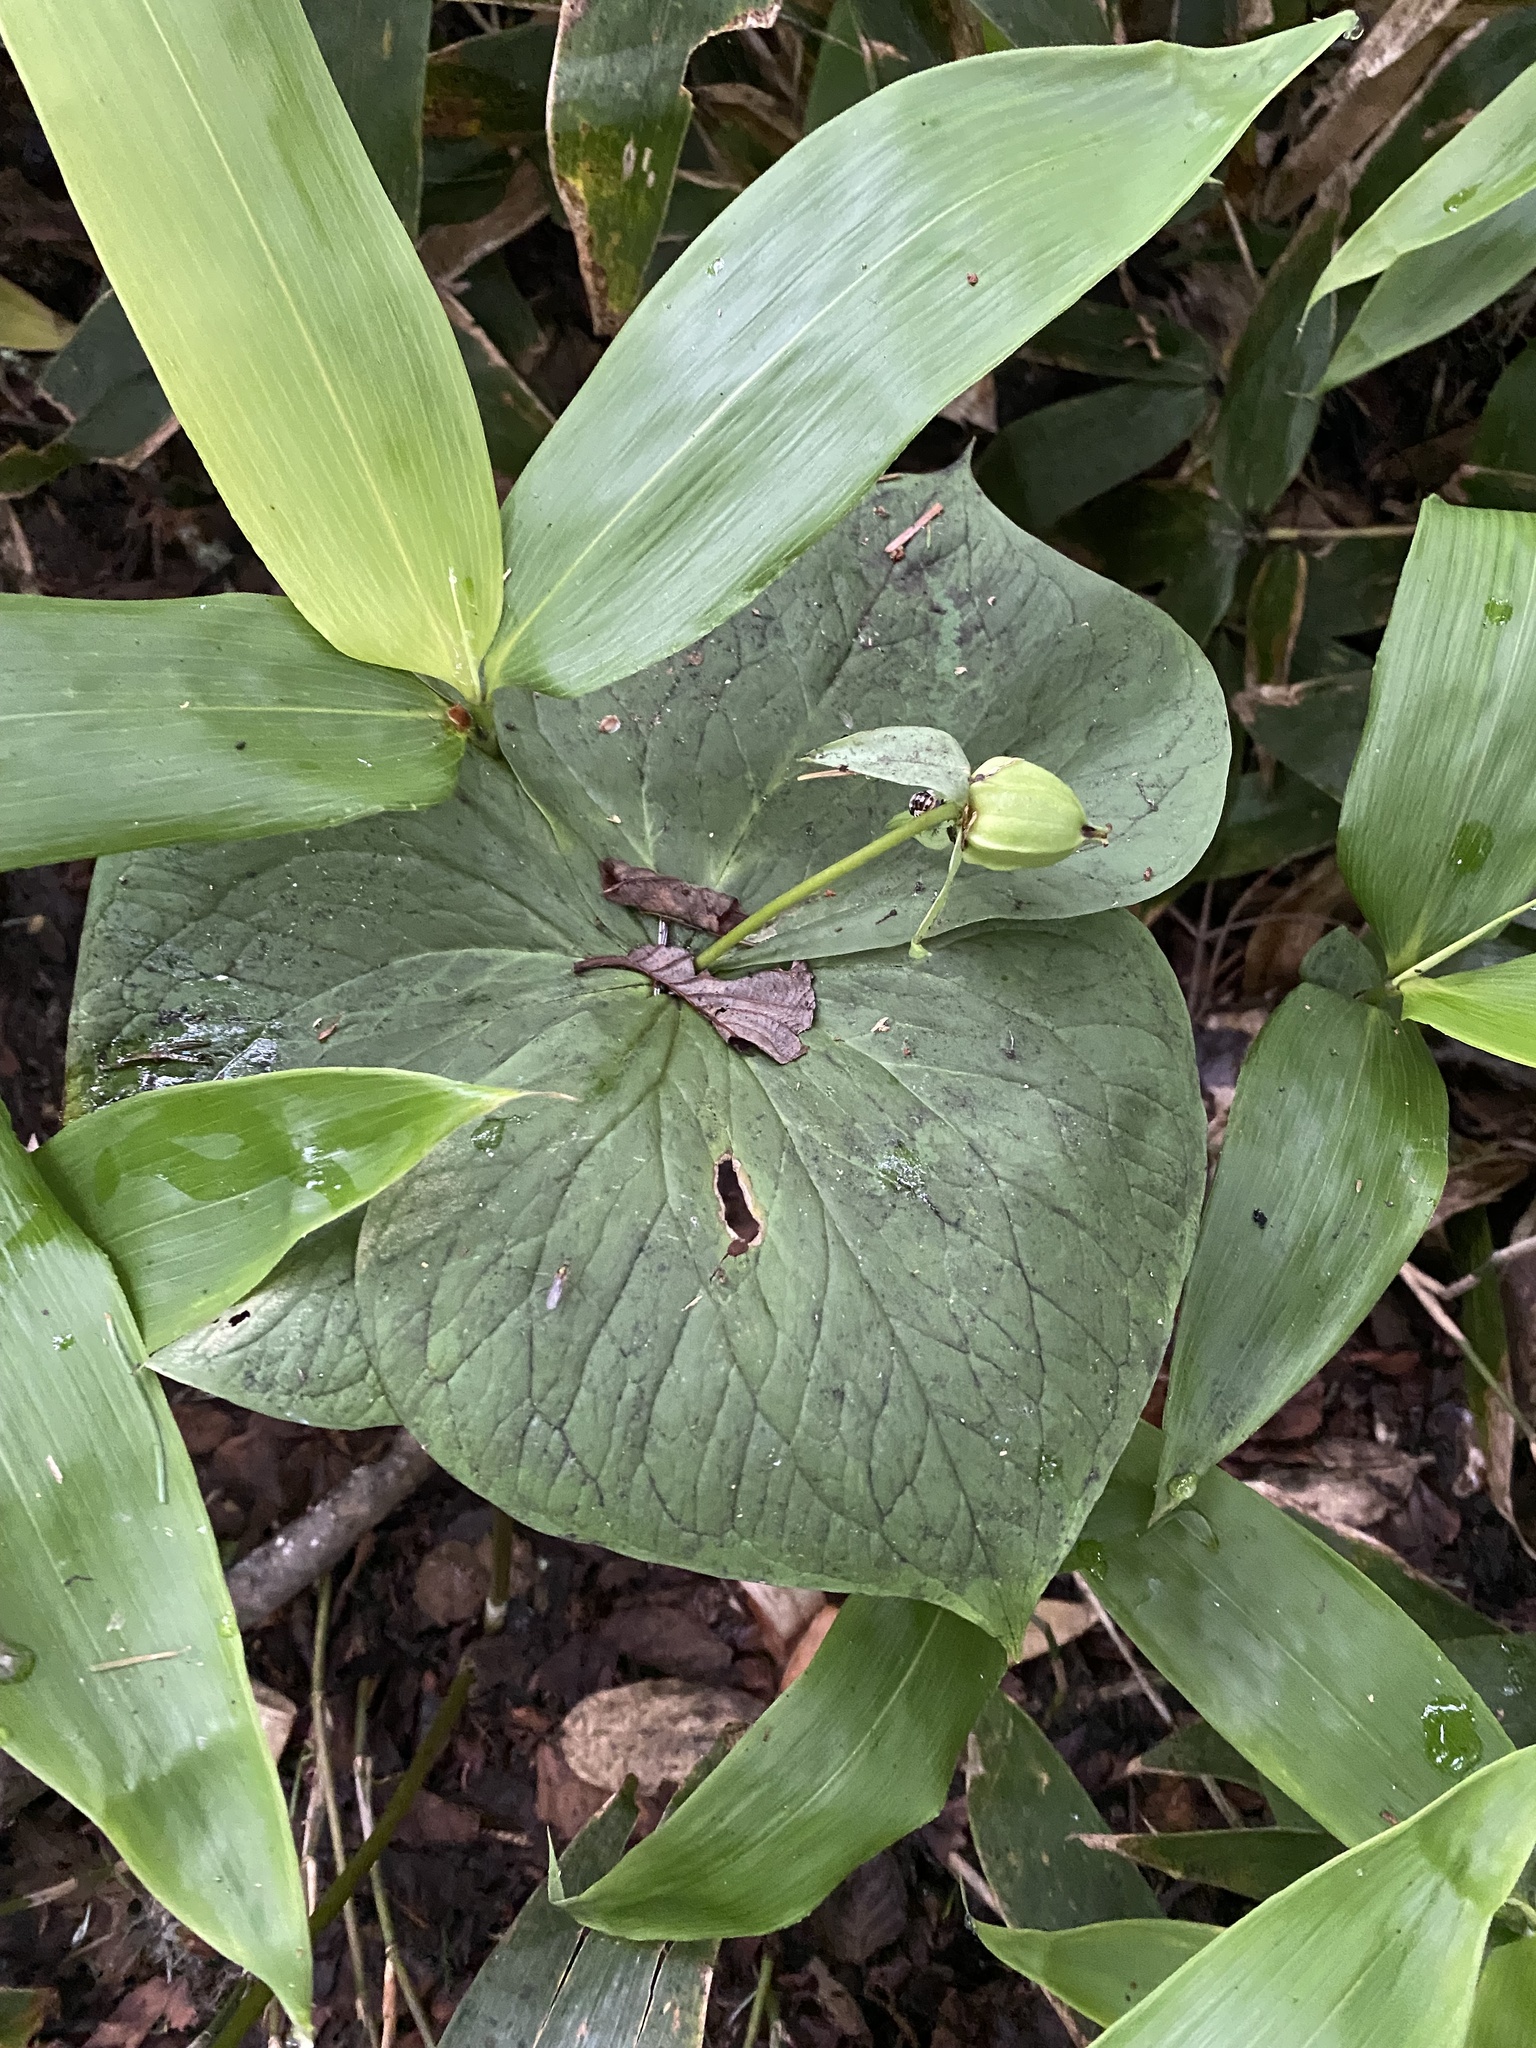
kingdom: Plantae
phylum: Tracheophyta
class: Liliopsida
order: Liliales
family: Melanthiaceae
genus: Trillium
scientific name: Trillium camschatcense
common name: Kamchatka trillium
